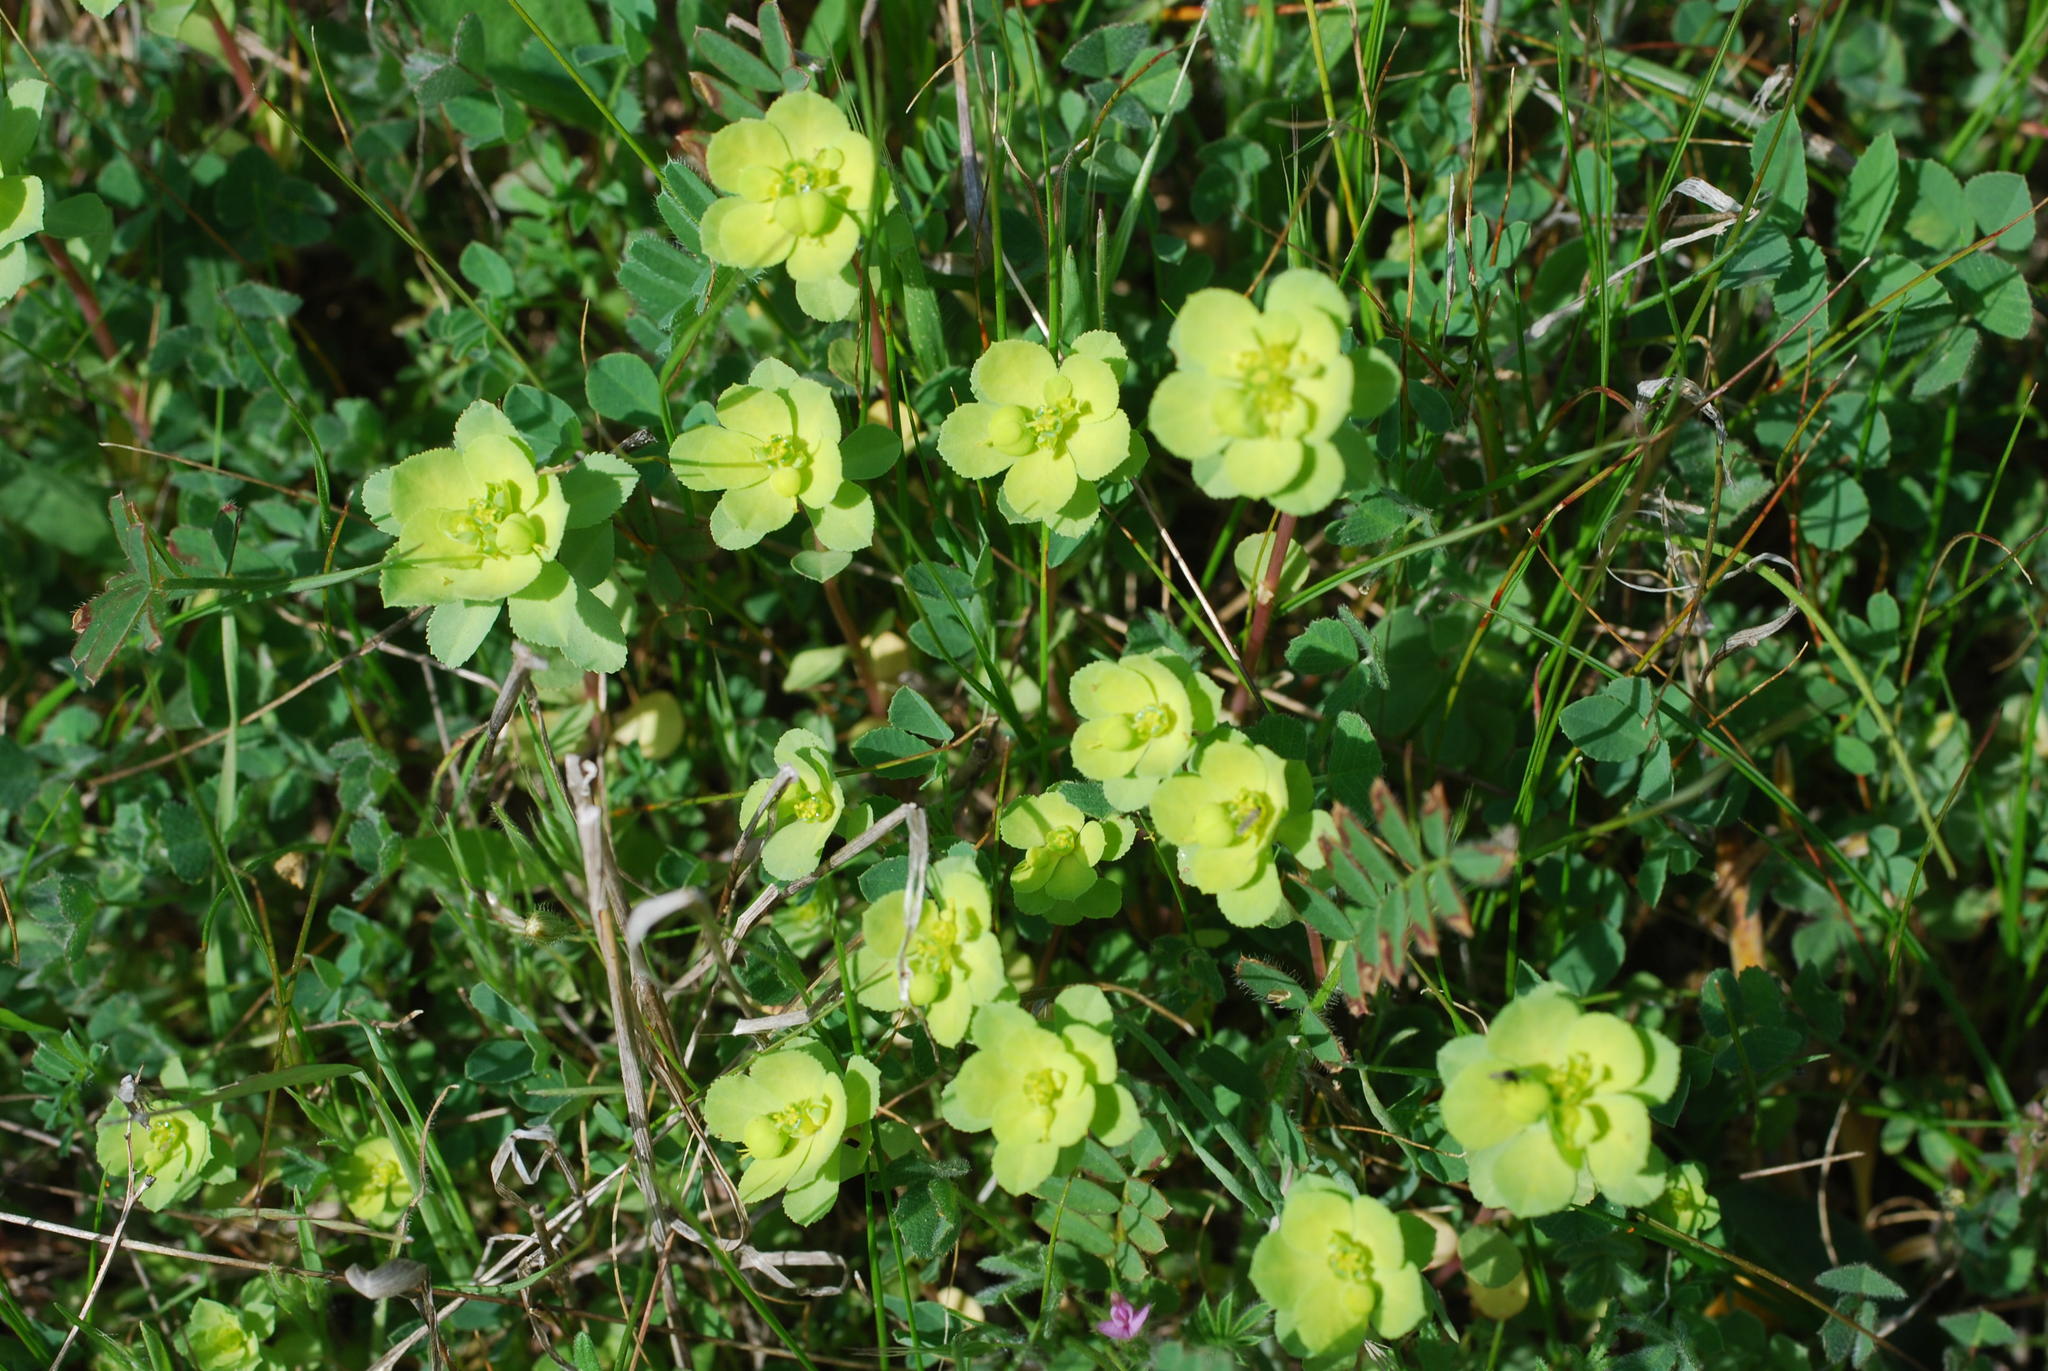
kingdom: Plantae
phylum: Tracheophyta
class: Magnoliopsida
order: Malpighiales
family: Euphorbiaceae
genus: Euphorbia
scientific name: Euphorbia helioscopia
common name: Sun spurge
